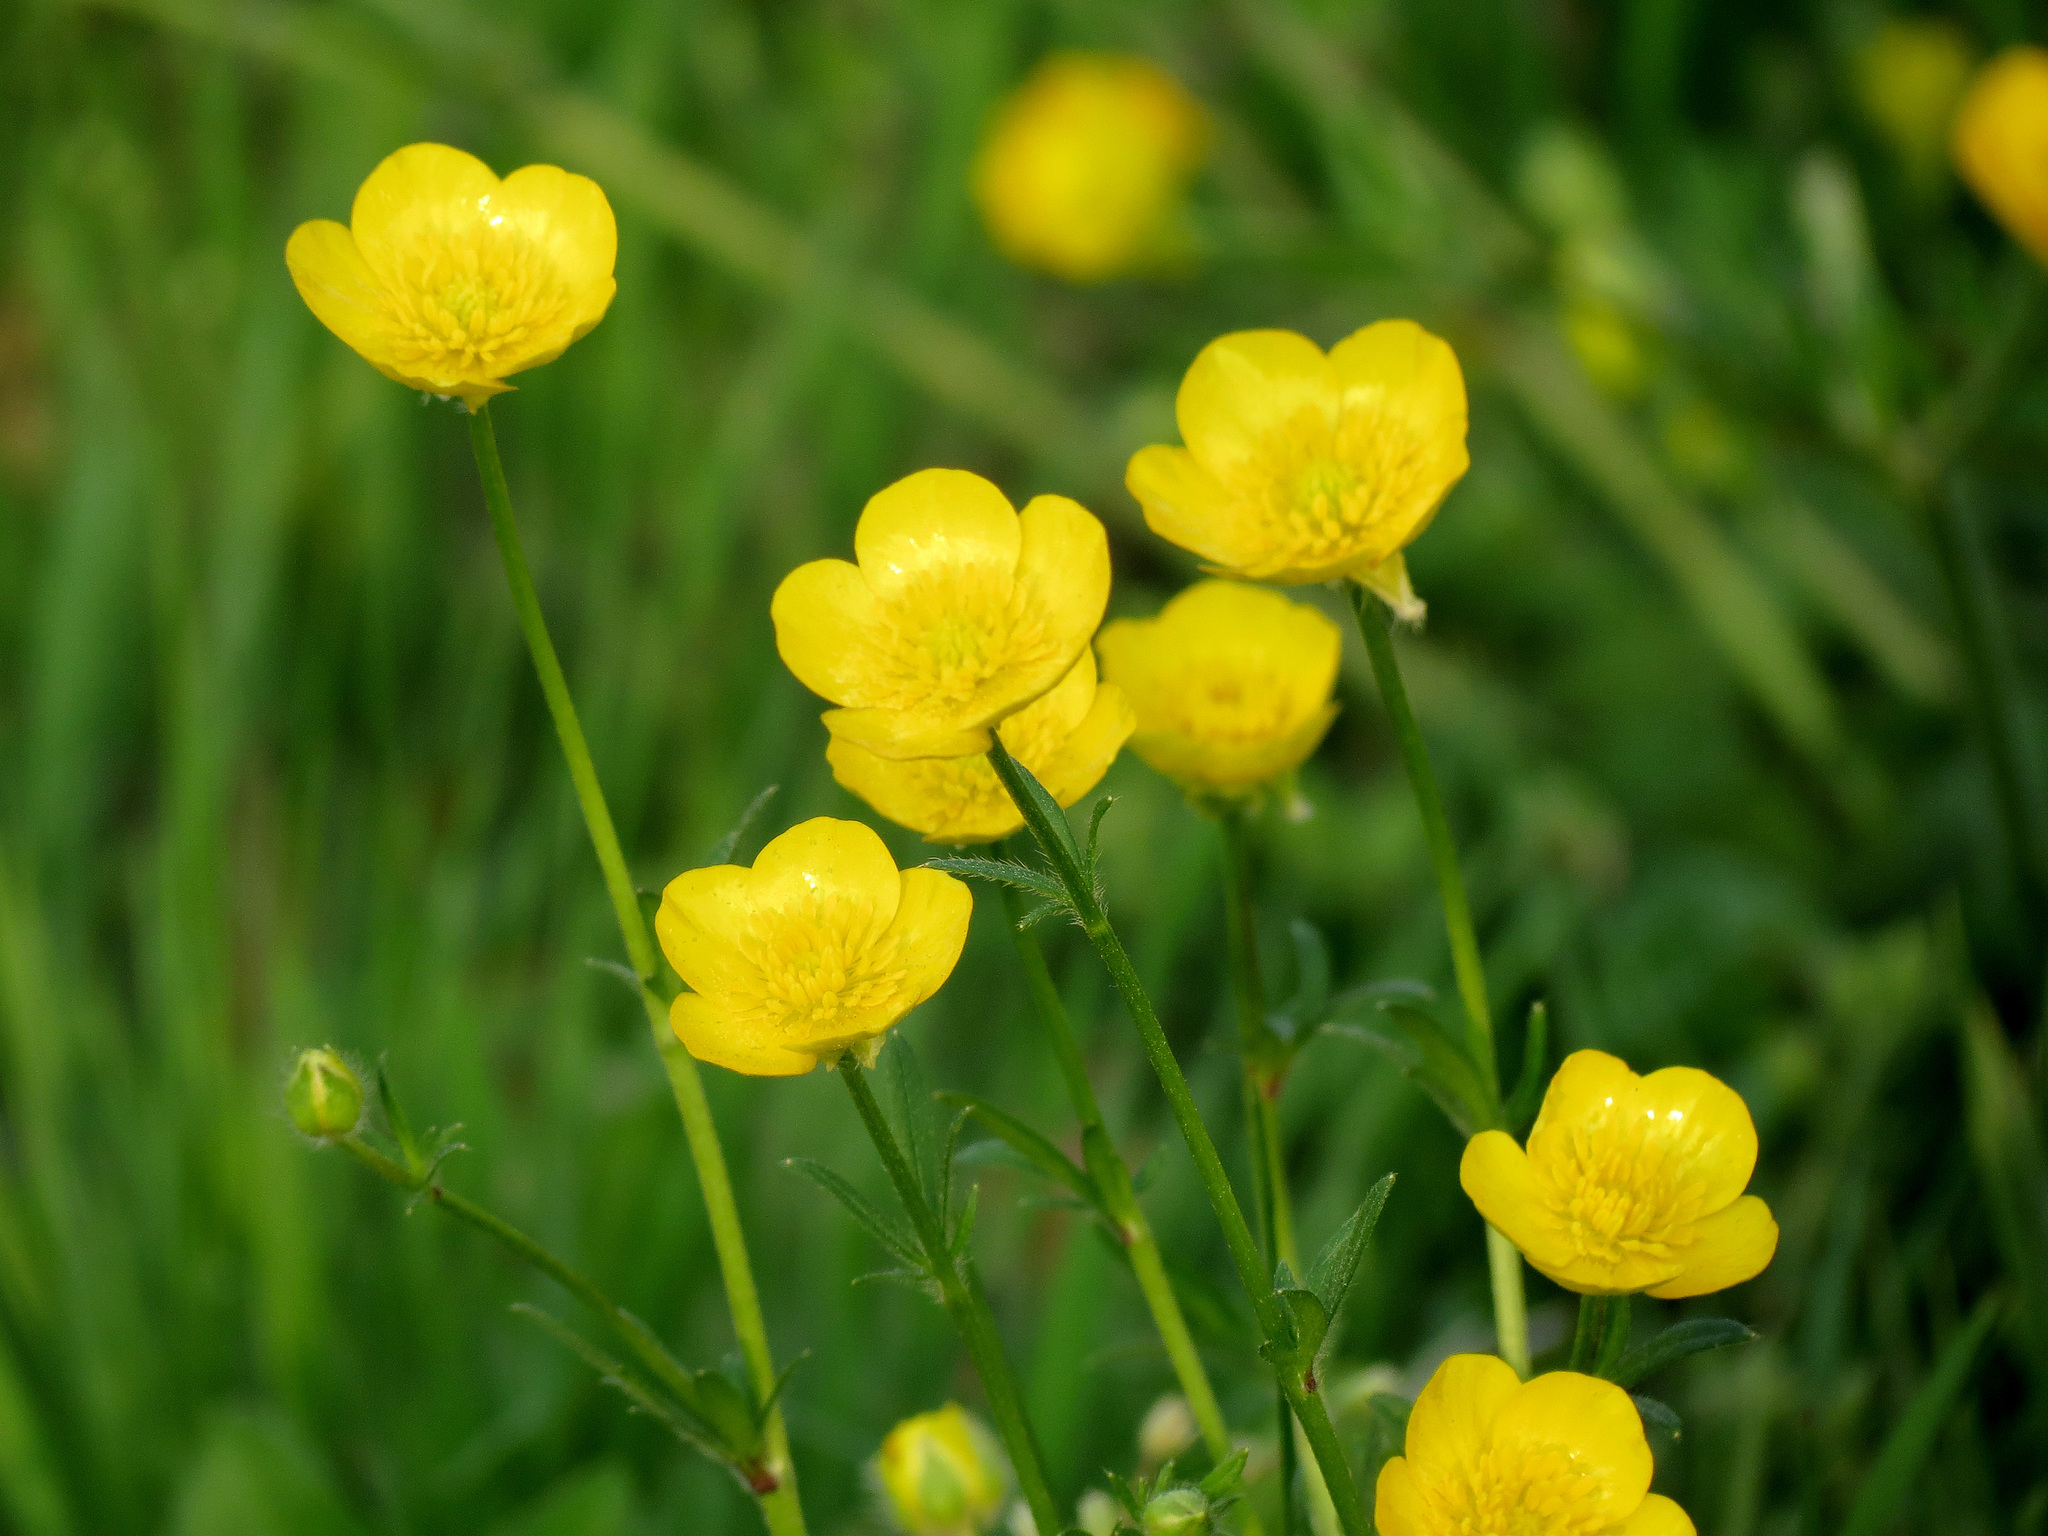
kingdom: Plantae
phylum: Tracheophyta
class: Magnoliopsida
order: Ranunculales
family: Ranunculaceae
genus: Ranunculus
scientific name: Ranunculus acris
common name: Meadow buttercup
